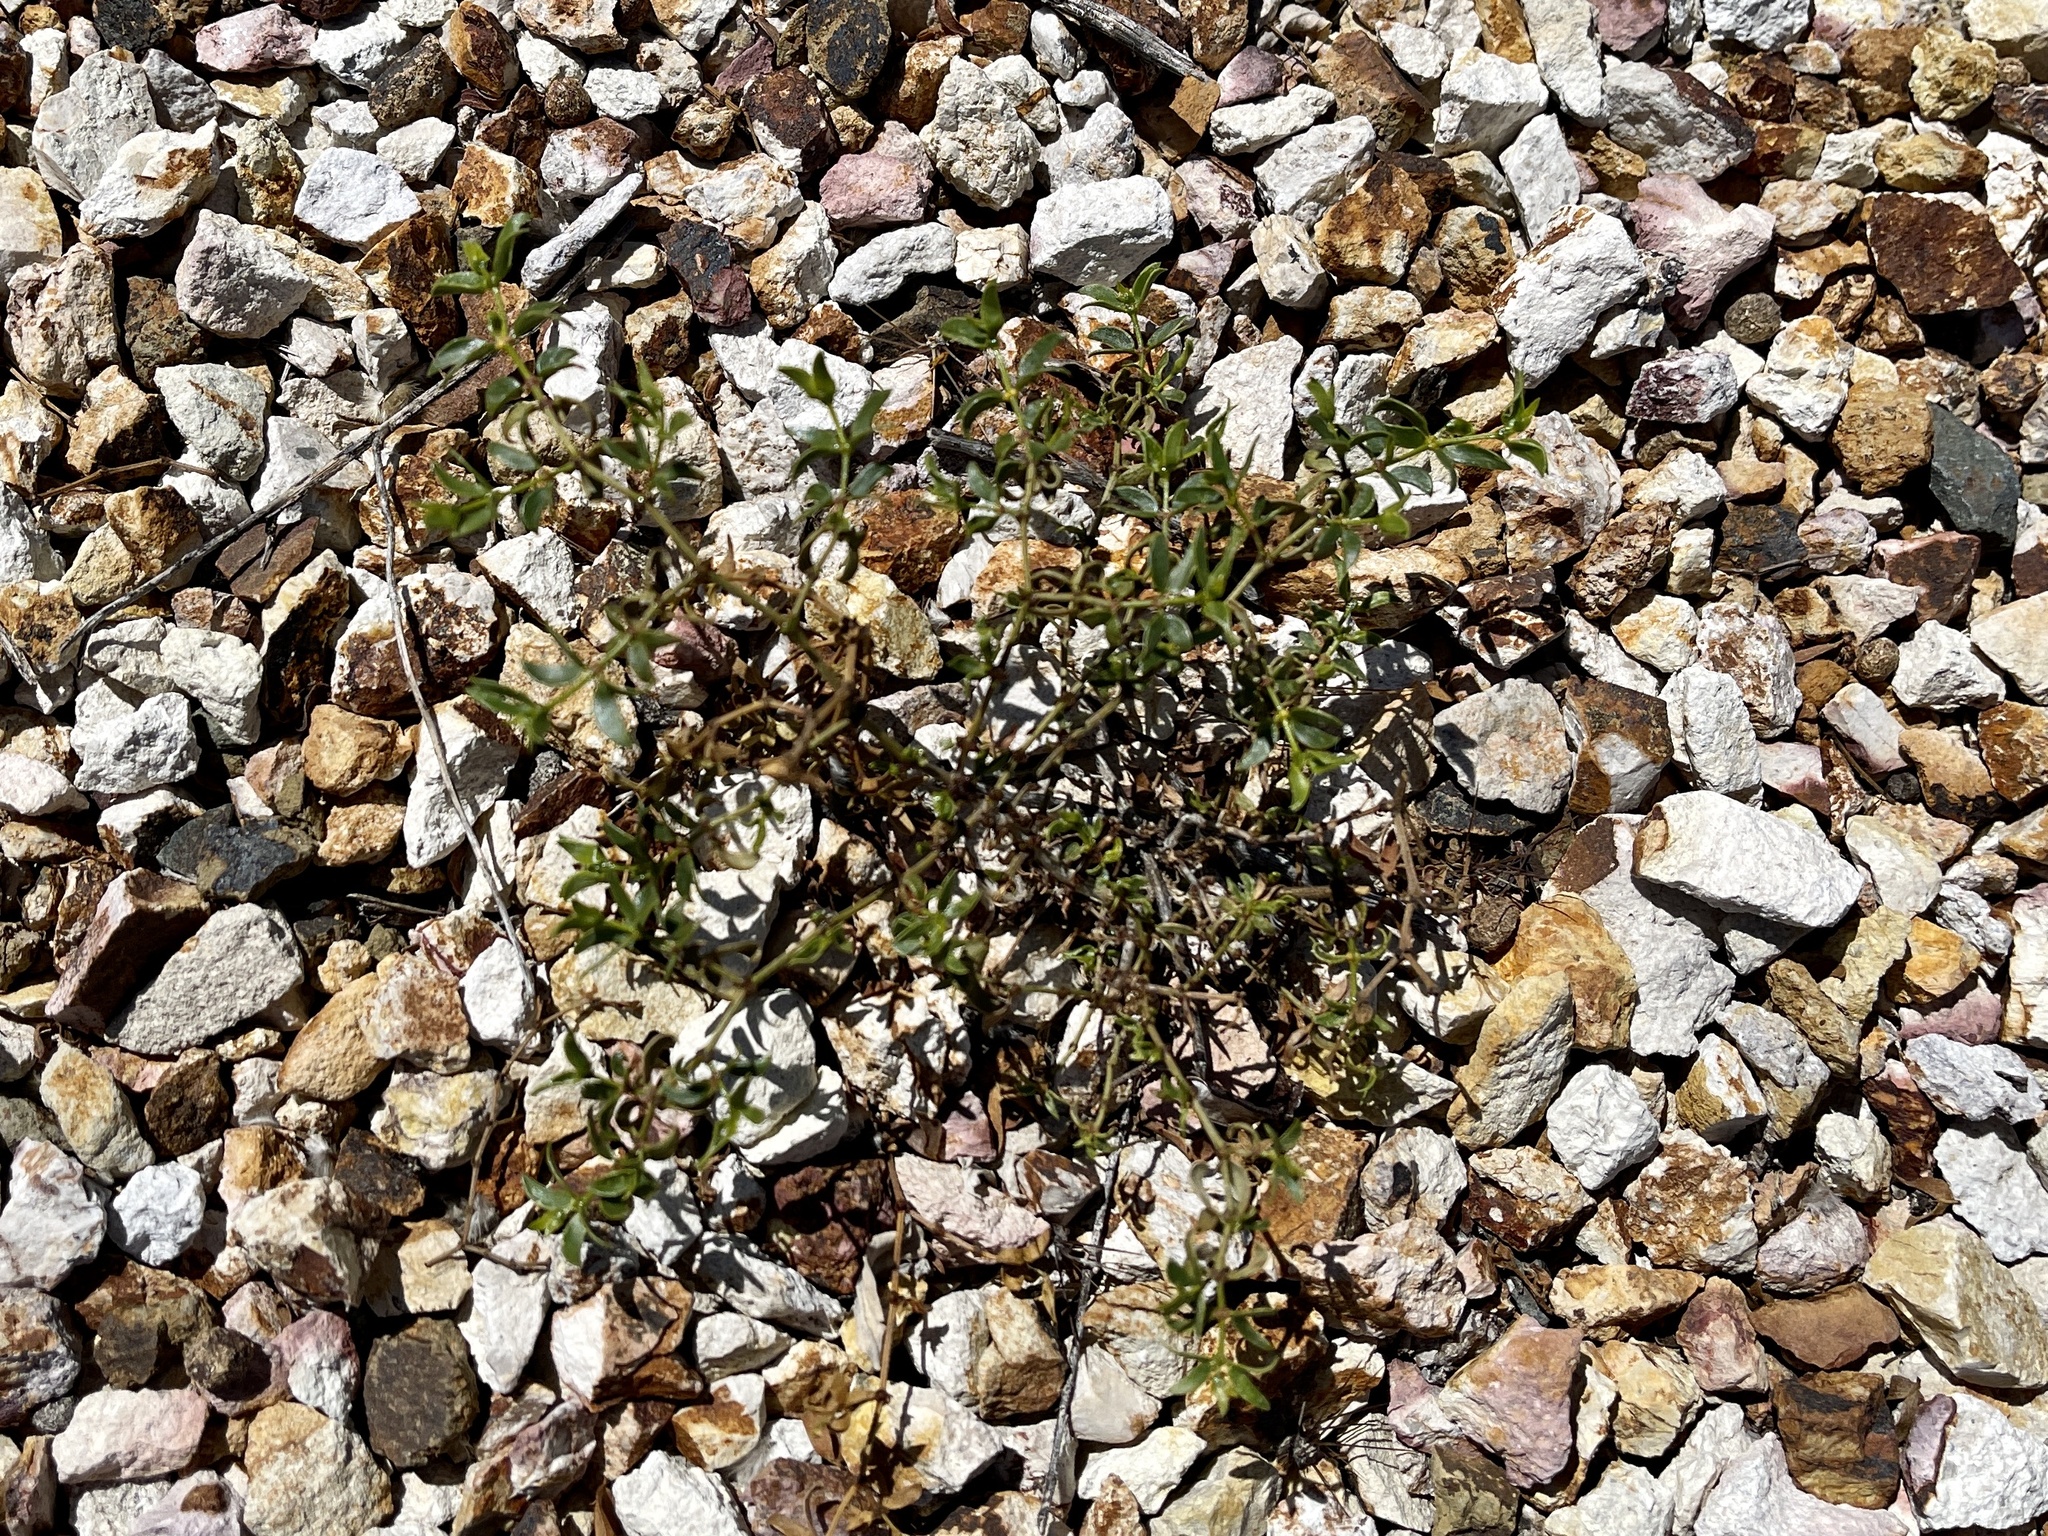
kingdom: Plantae
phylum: Tracheophyta
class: Magnoliopsida
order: Zygophyllales
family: Zygophyllaceae
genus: Larrea
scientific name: Larrea tridentata
